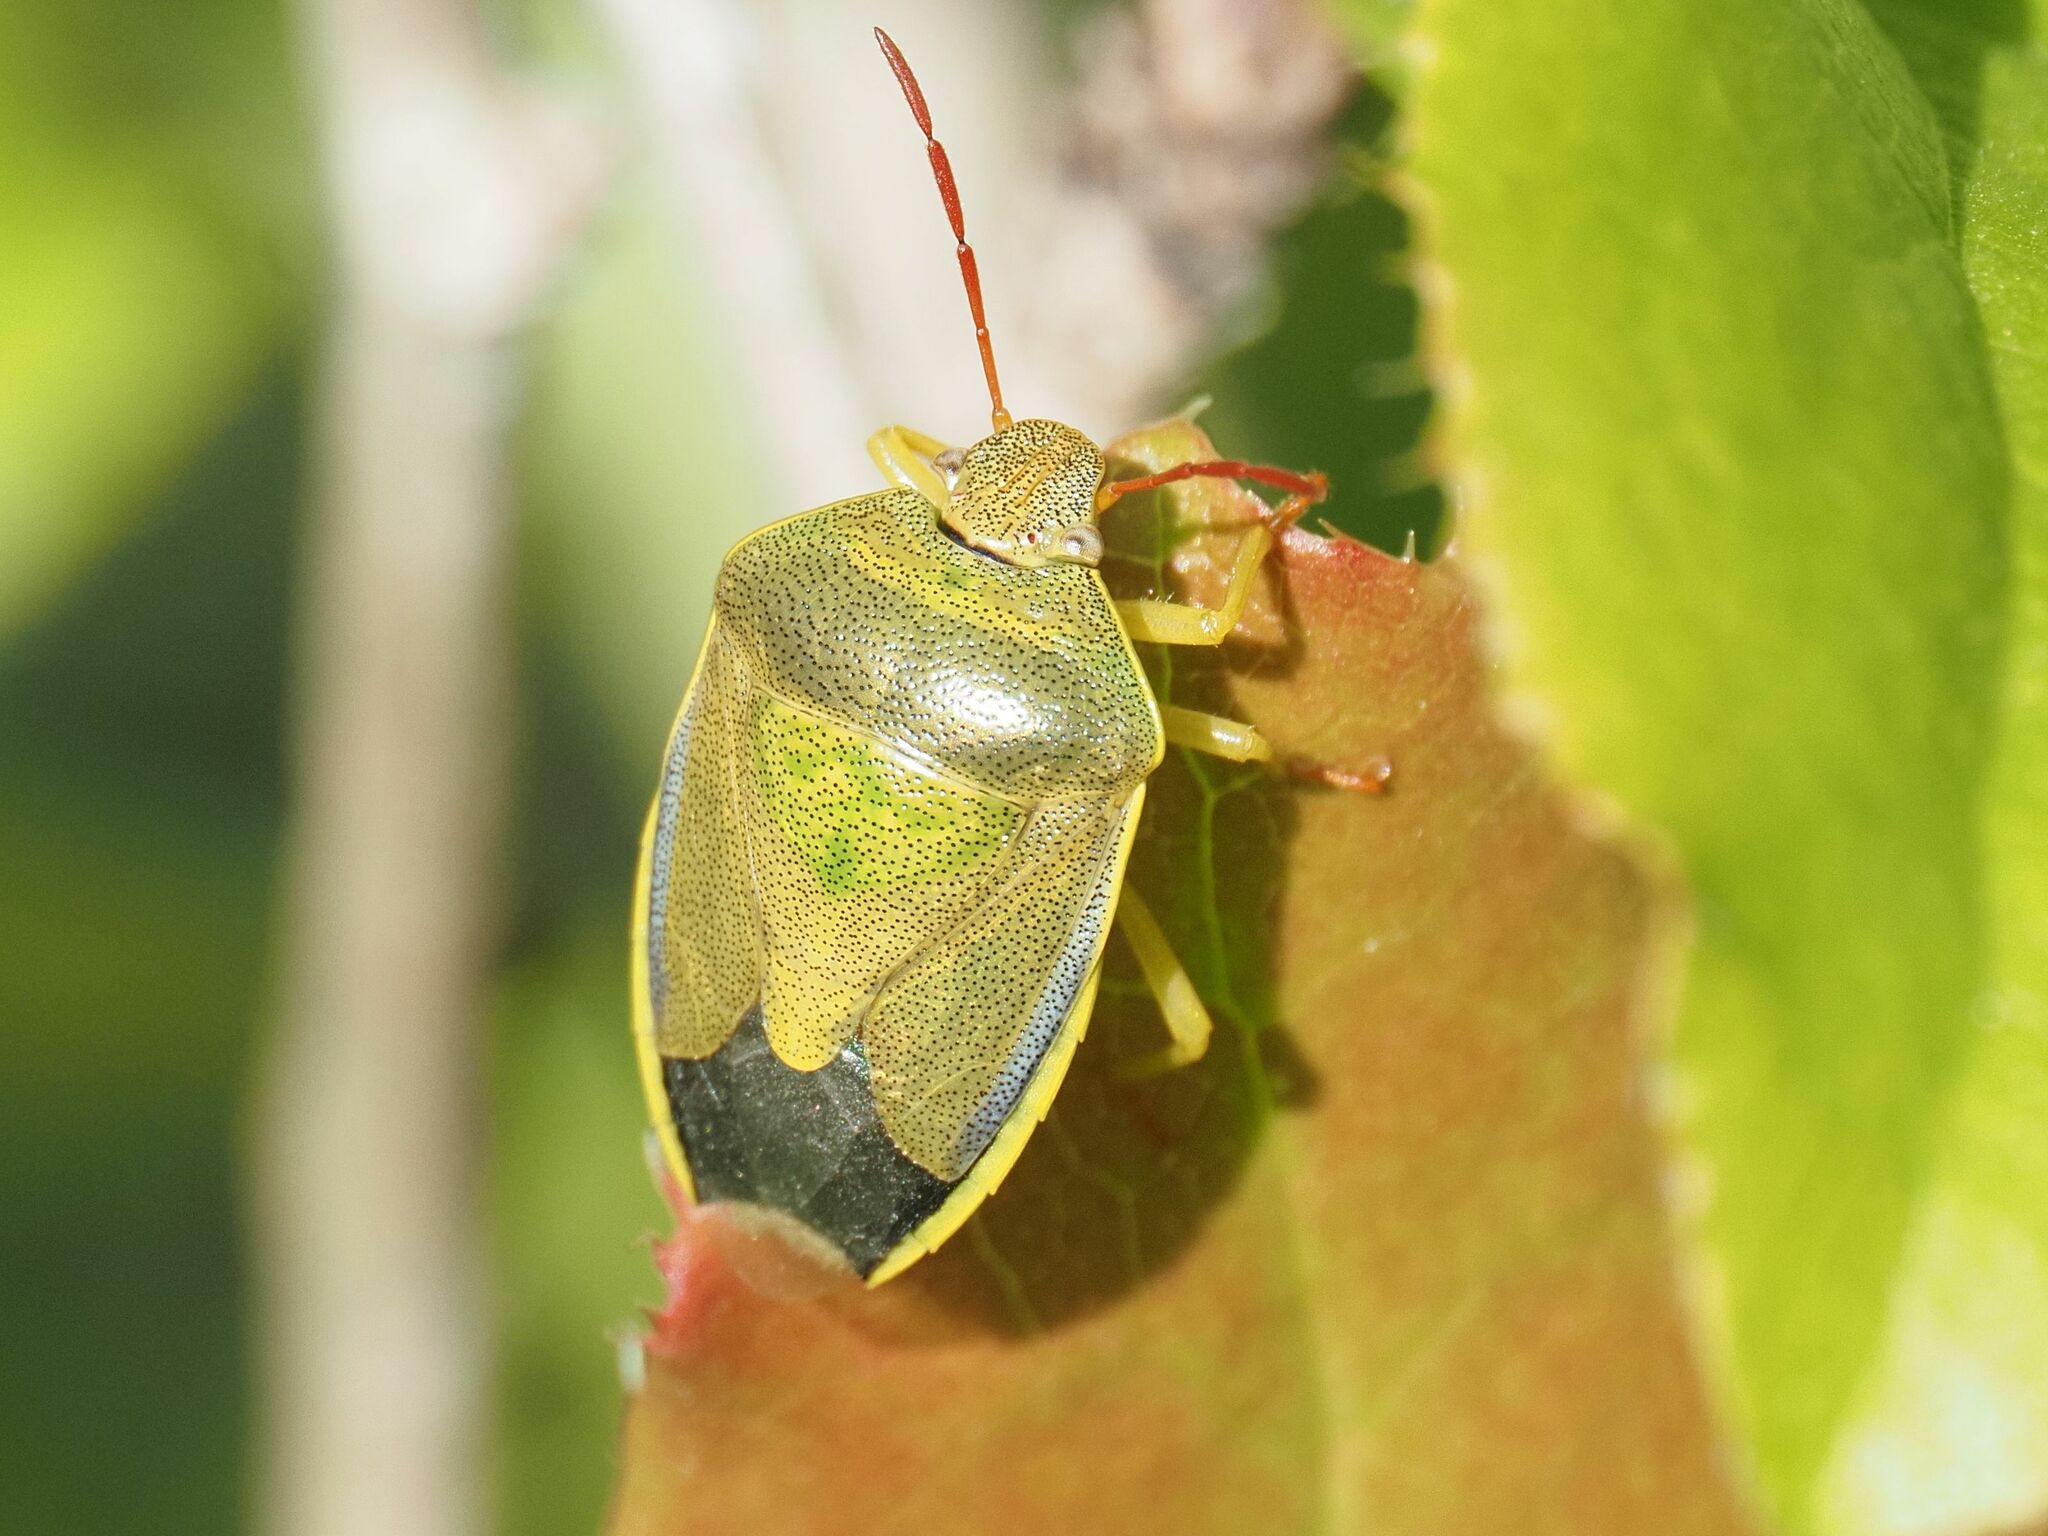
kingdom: Animalia
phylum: Arthropoda
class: Insecta
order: Hemiptera
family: Pentatomidae
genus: Piezodorus
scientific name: Piezodorus lituratus
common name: Stink bug
